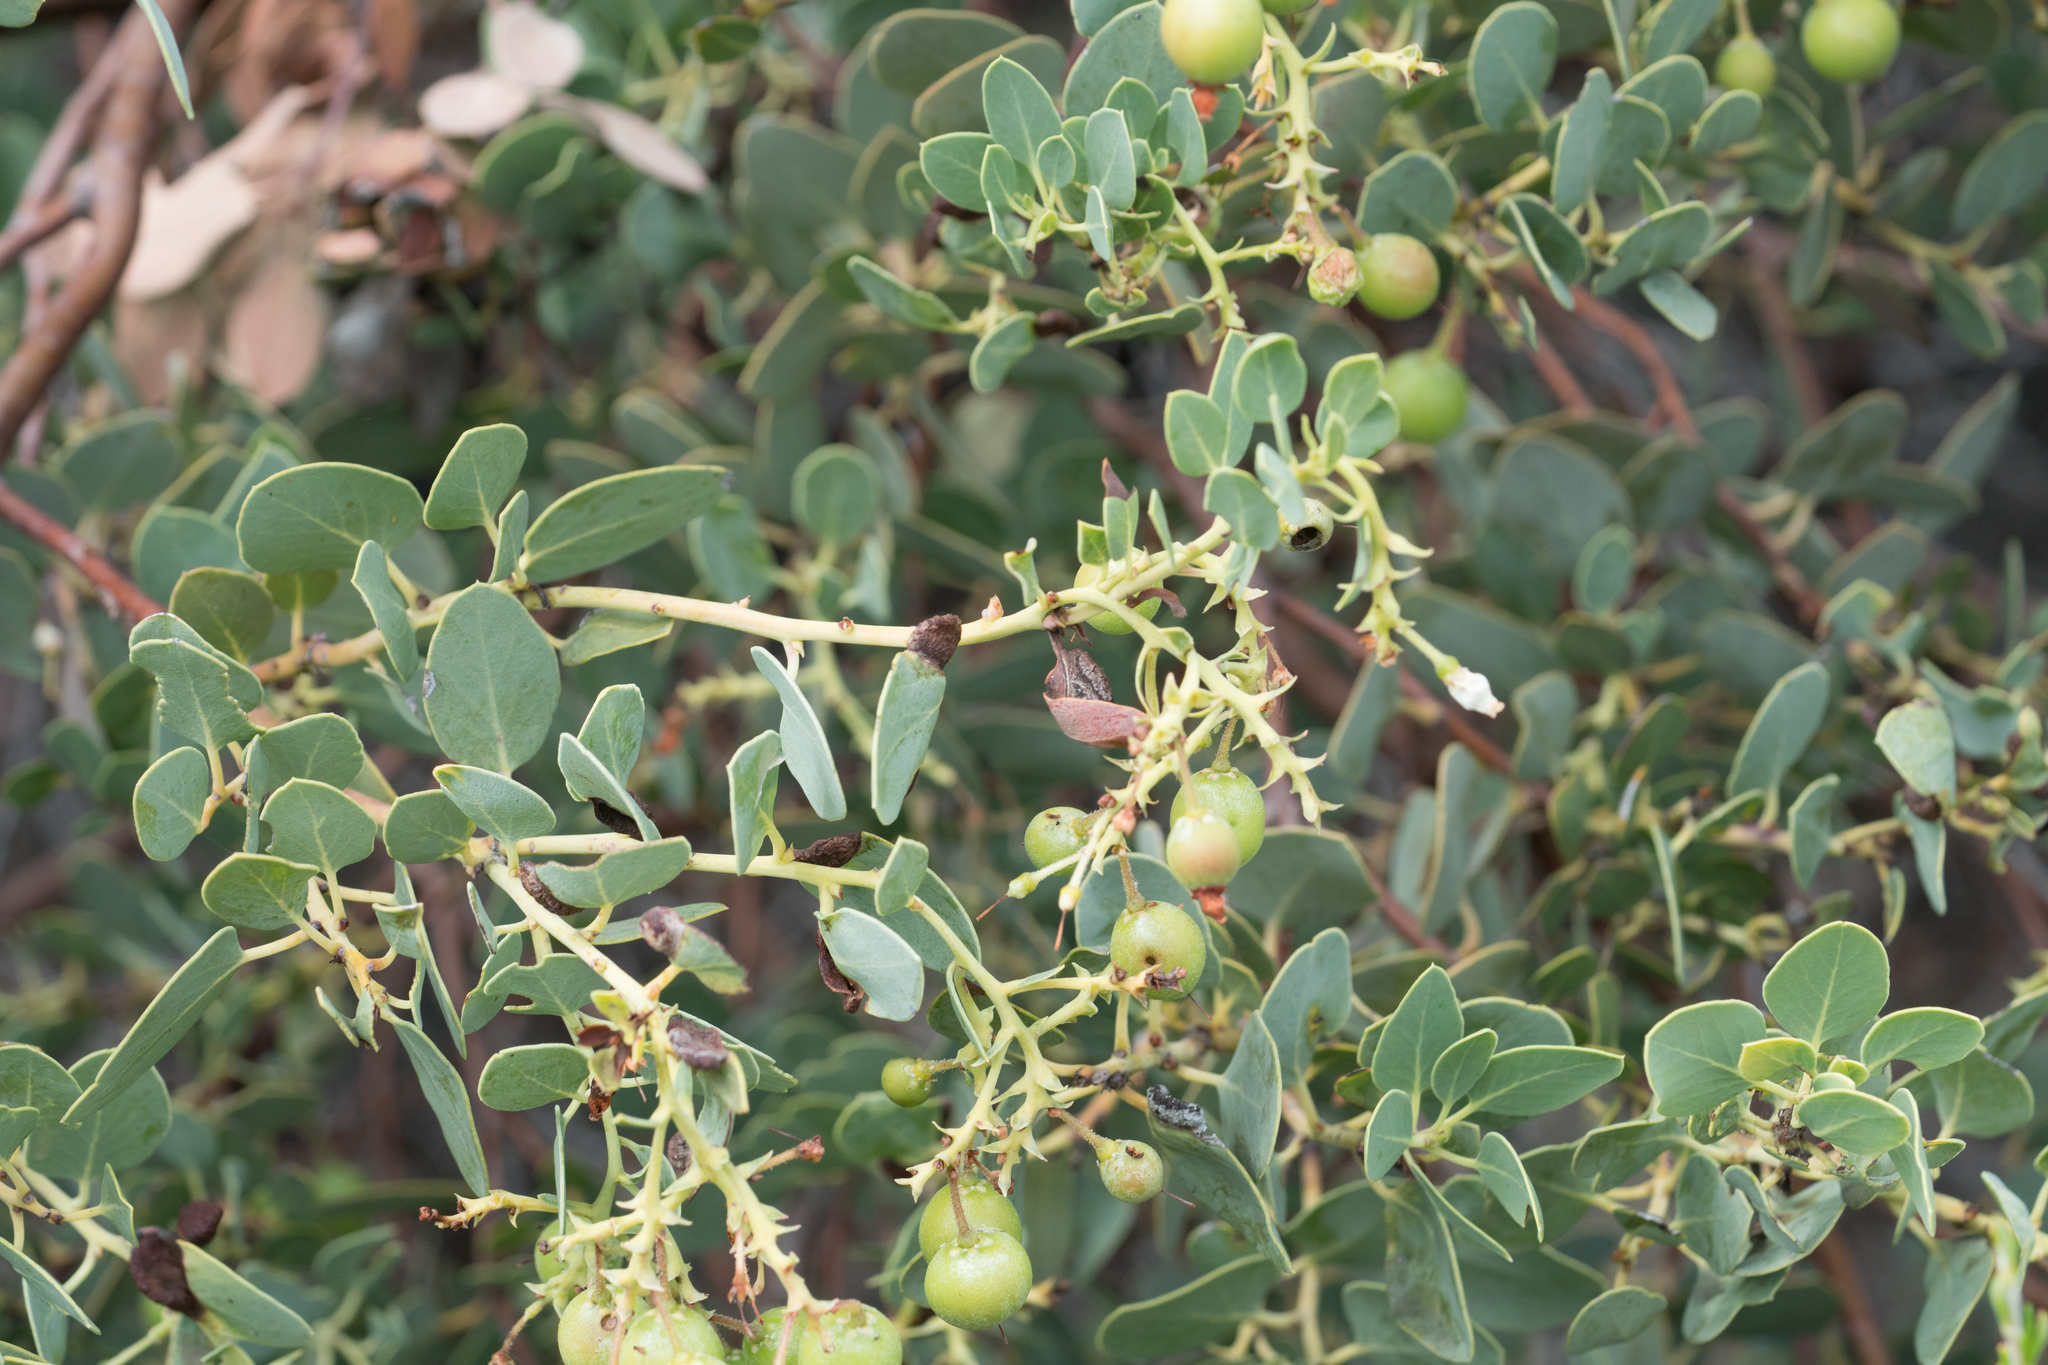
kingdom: Plantae
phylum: Tracheophyta
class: Magnoliopsida
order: Ericales
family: Ericaceae
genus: Arctostaphylos
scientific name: Arctostaphylos glauca
